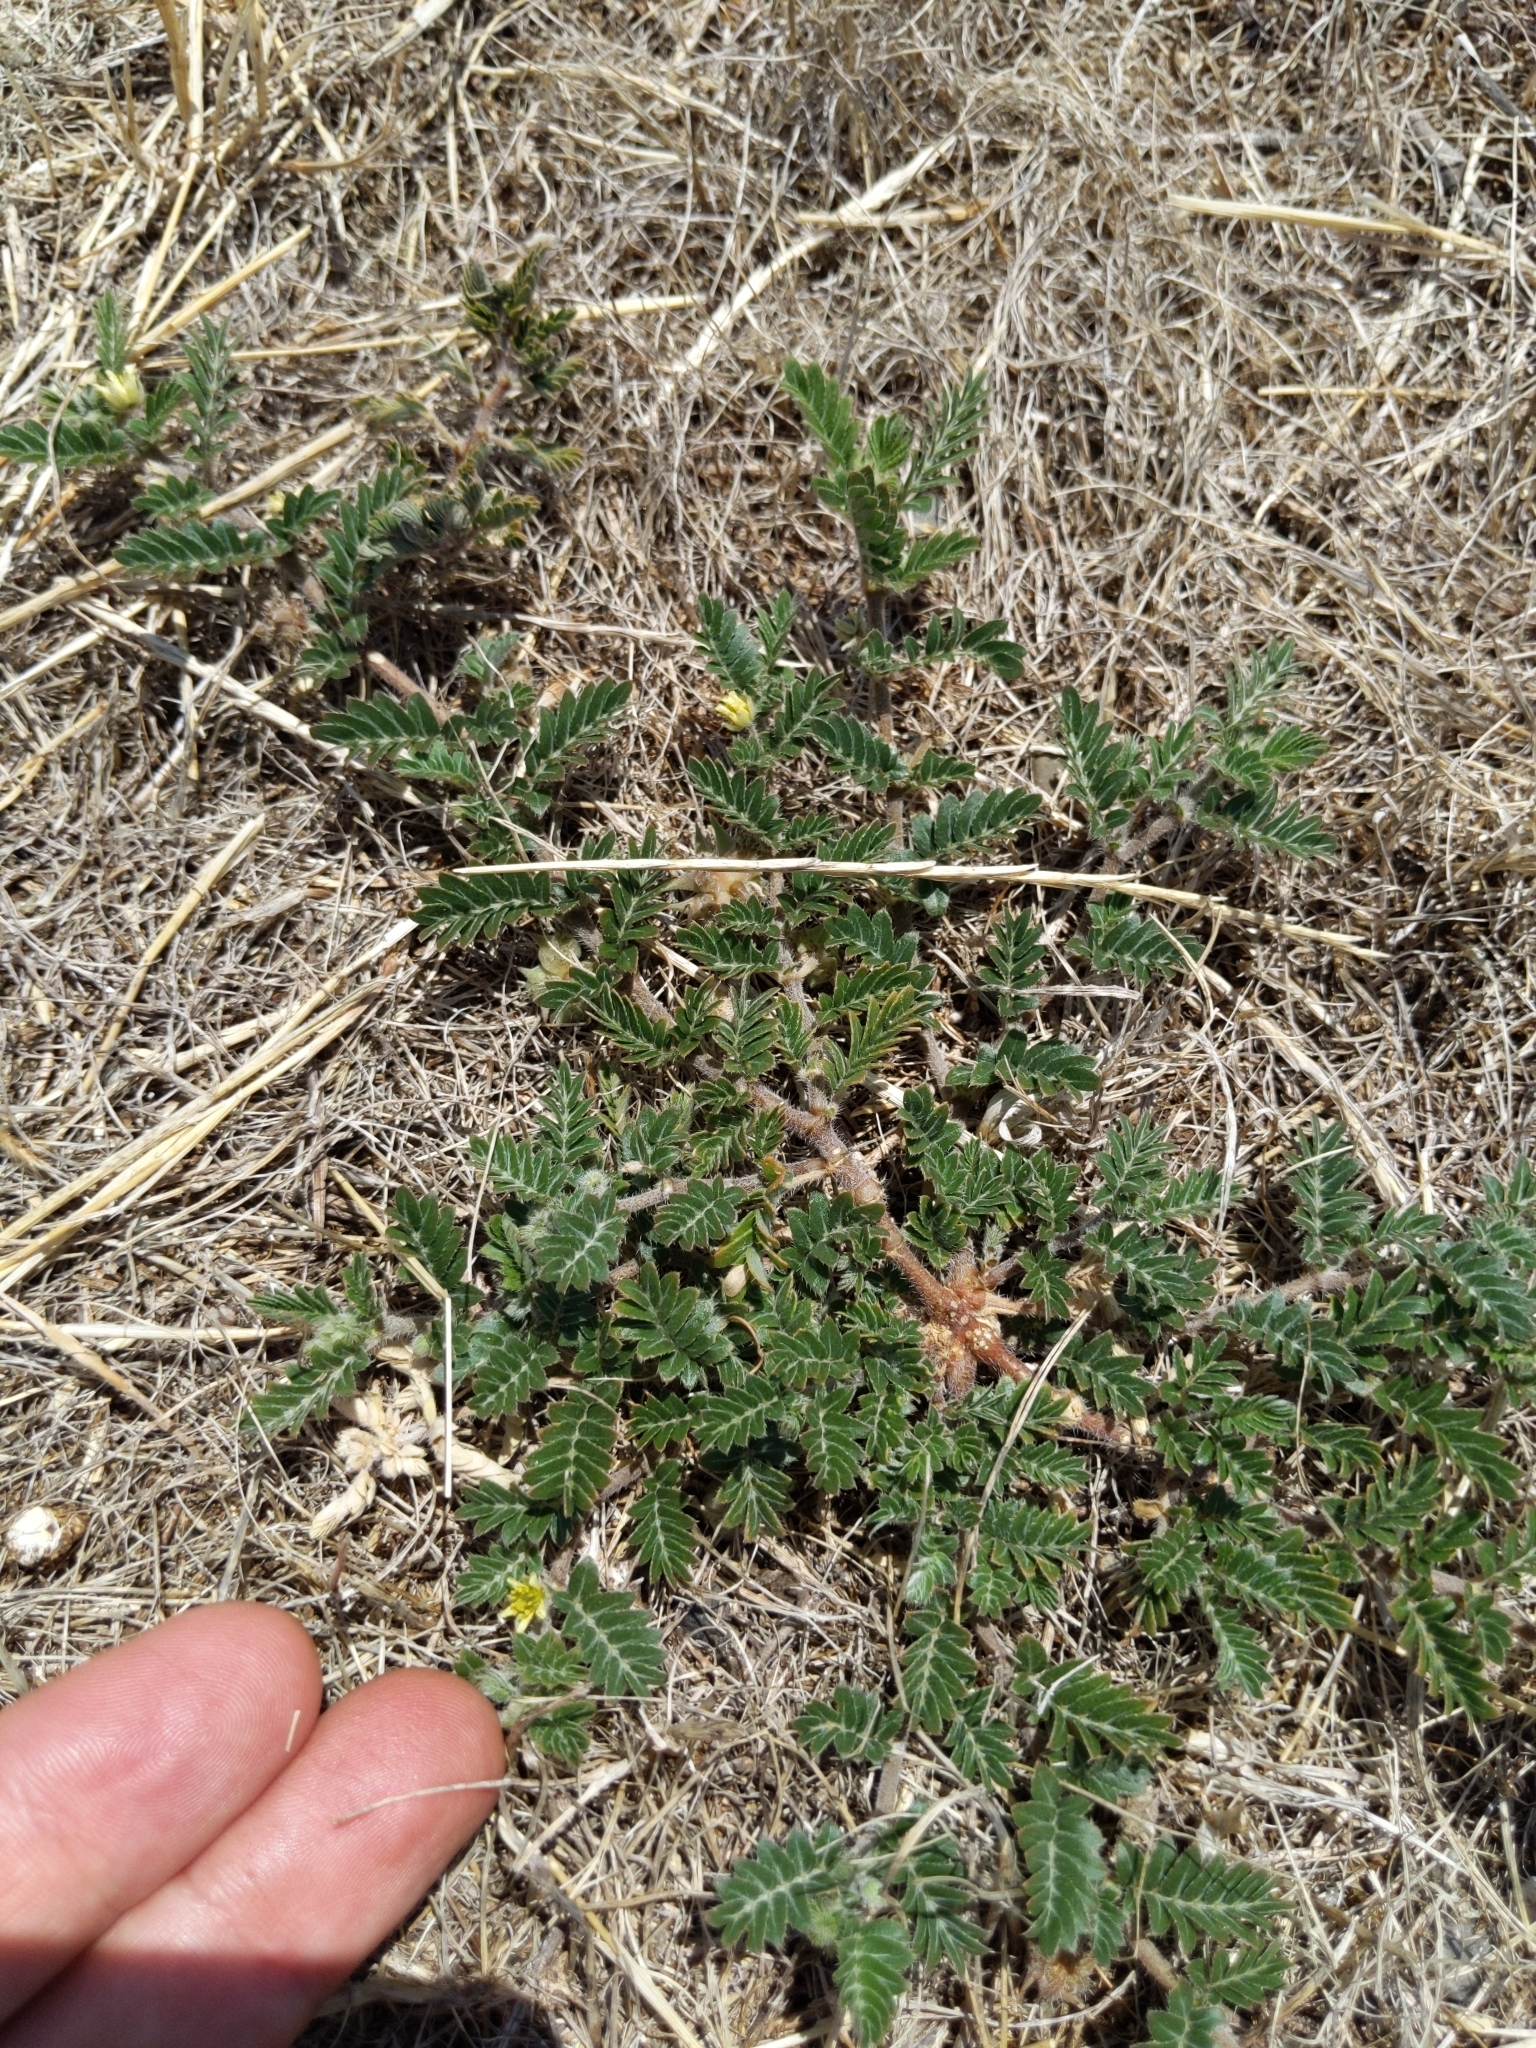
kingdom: Plantae
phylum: Tracheophyta
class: Magnoliopsida
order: Zygophyllales
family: Zygophyllaceae
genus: Tribulus
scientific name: Tribulus terrestris
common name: Puncturevine
